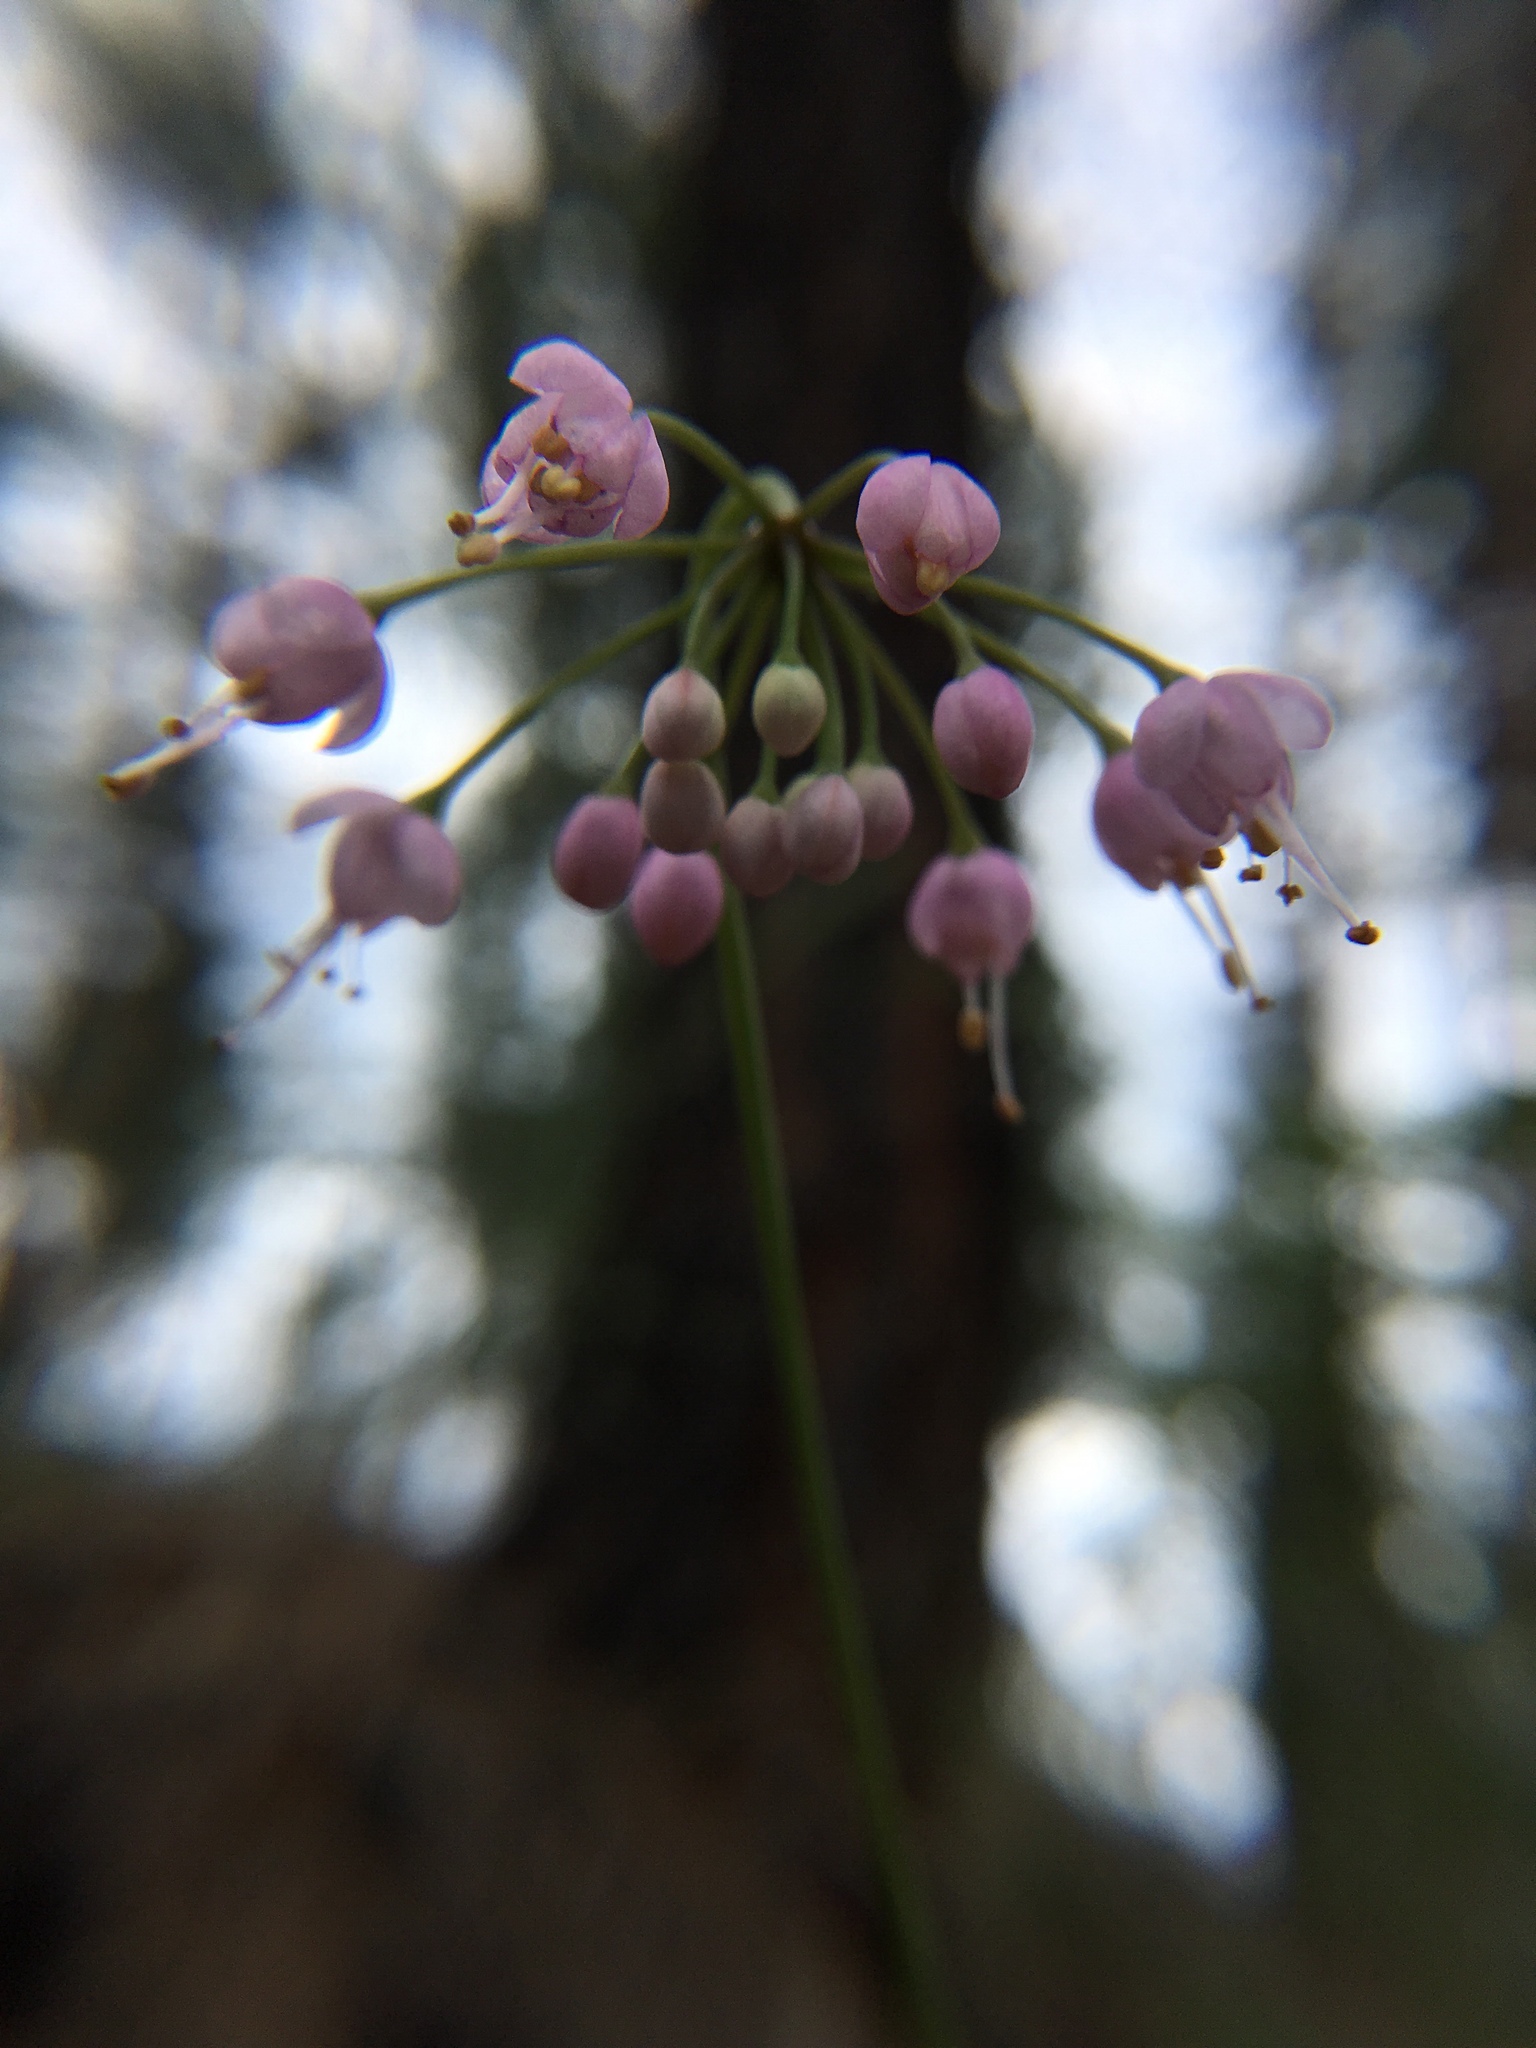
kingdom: Plantae
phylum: Tracheophyta
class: Liliopsida
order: Asparagales
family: Amaryllidaceae
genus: Allium
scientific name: Allium cernuum
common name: Nodding onion
